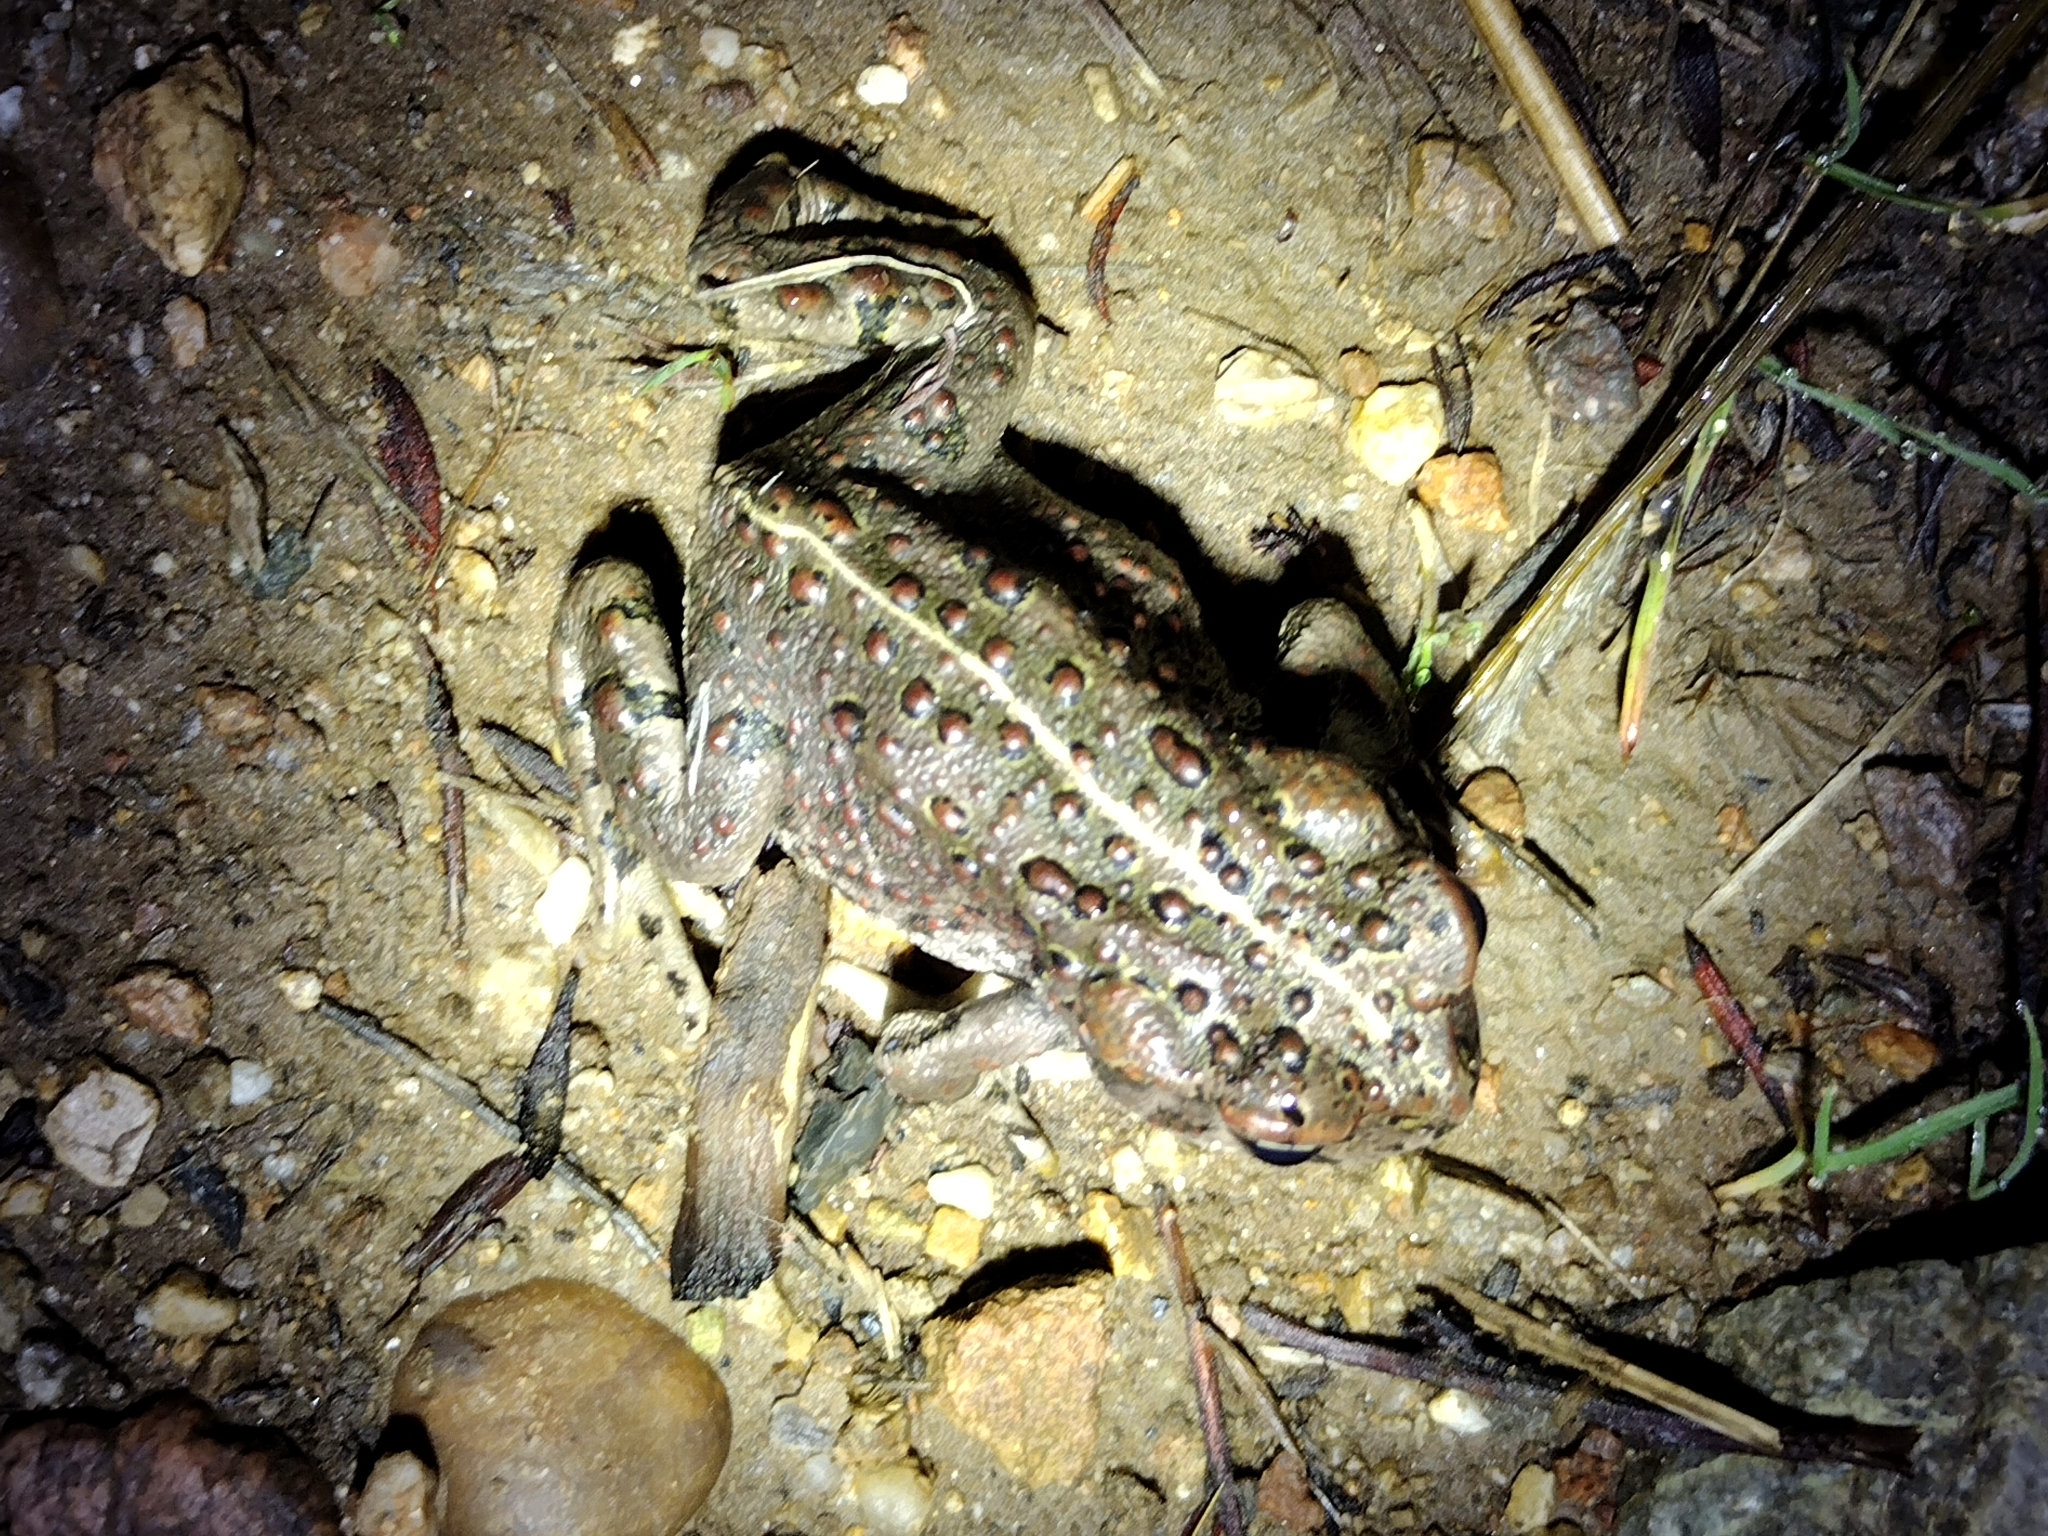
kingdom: Animalia
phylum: Chordata
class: Amphibia
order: Anura
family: Bufonidae
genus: Anaxyrus
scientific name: Anaxyrus boreas
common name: Western toad
